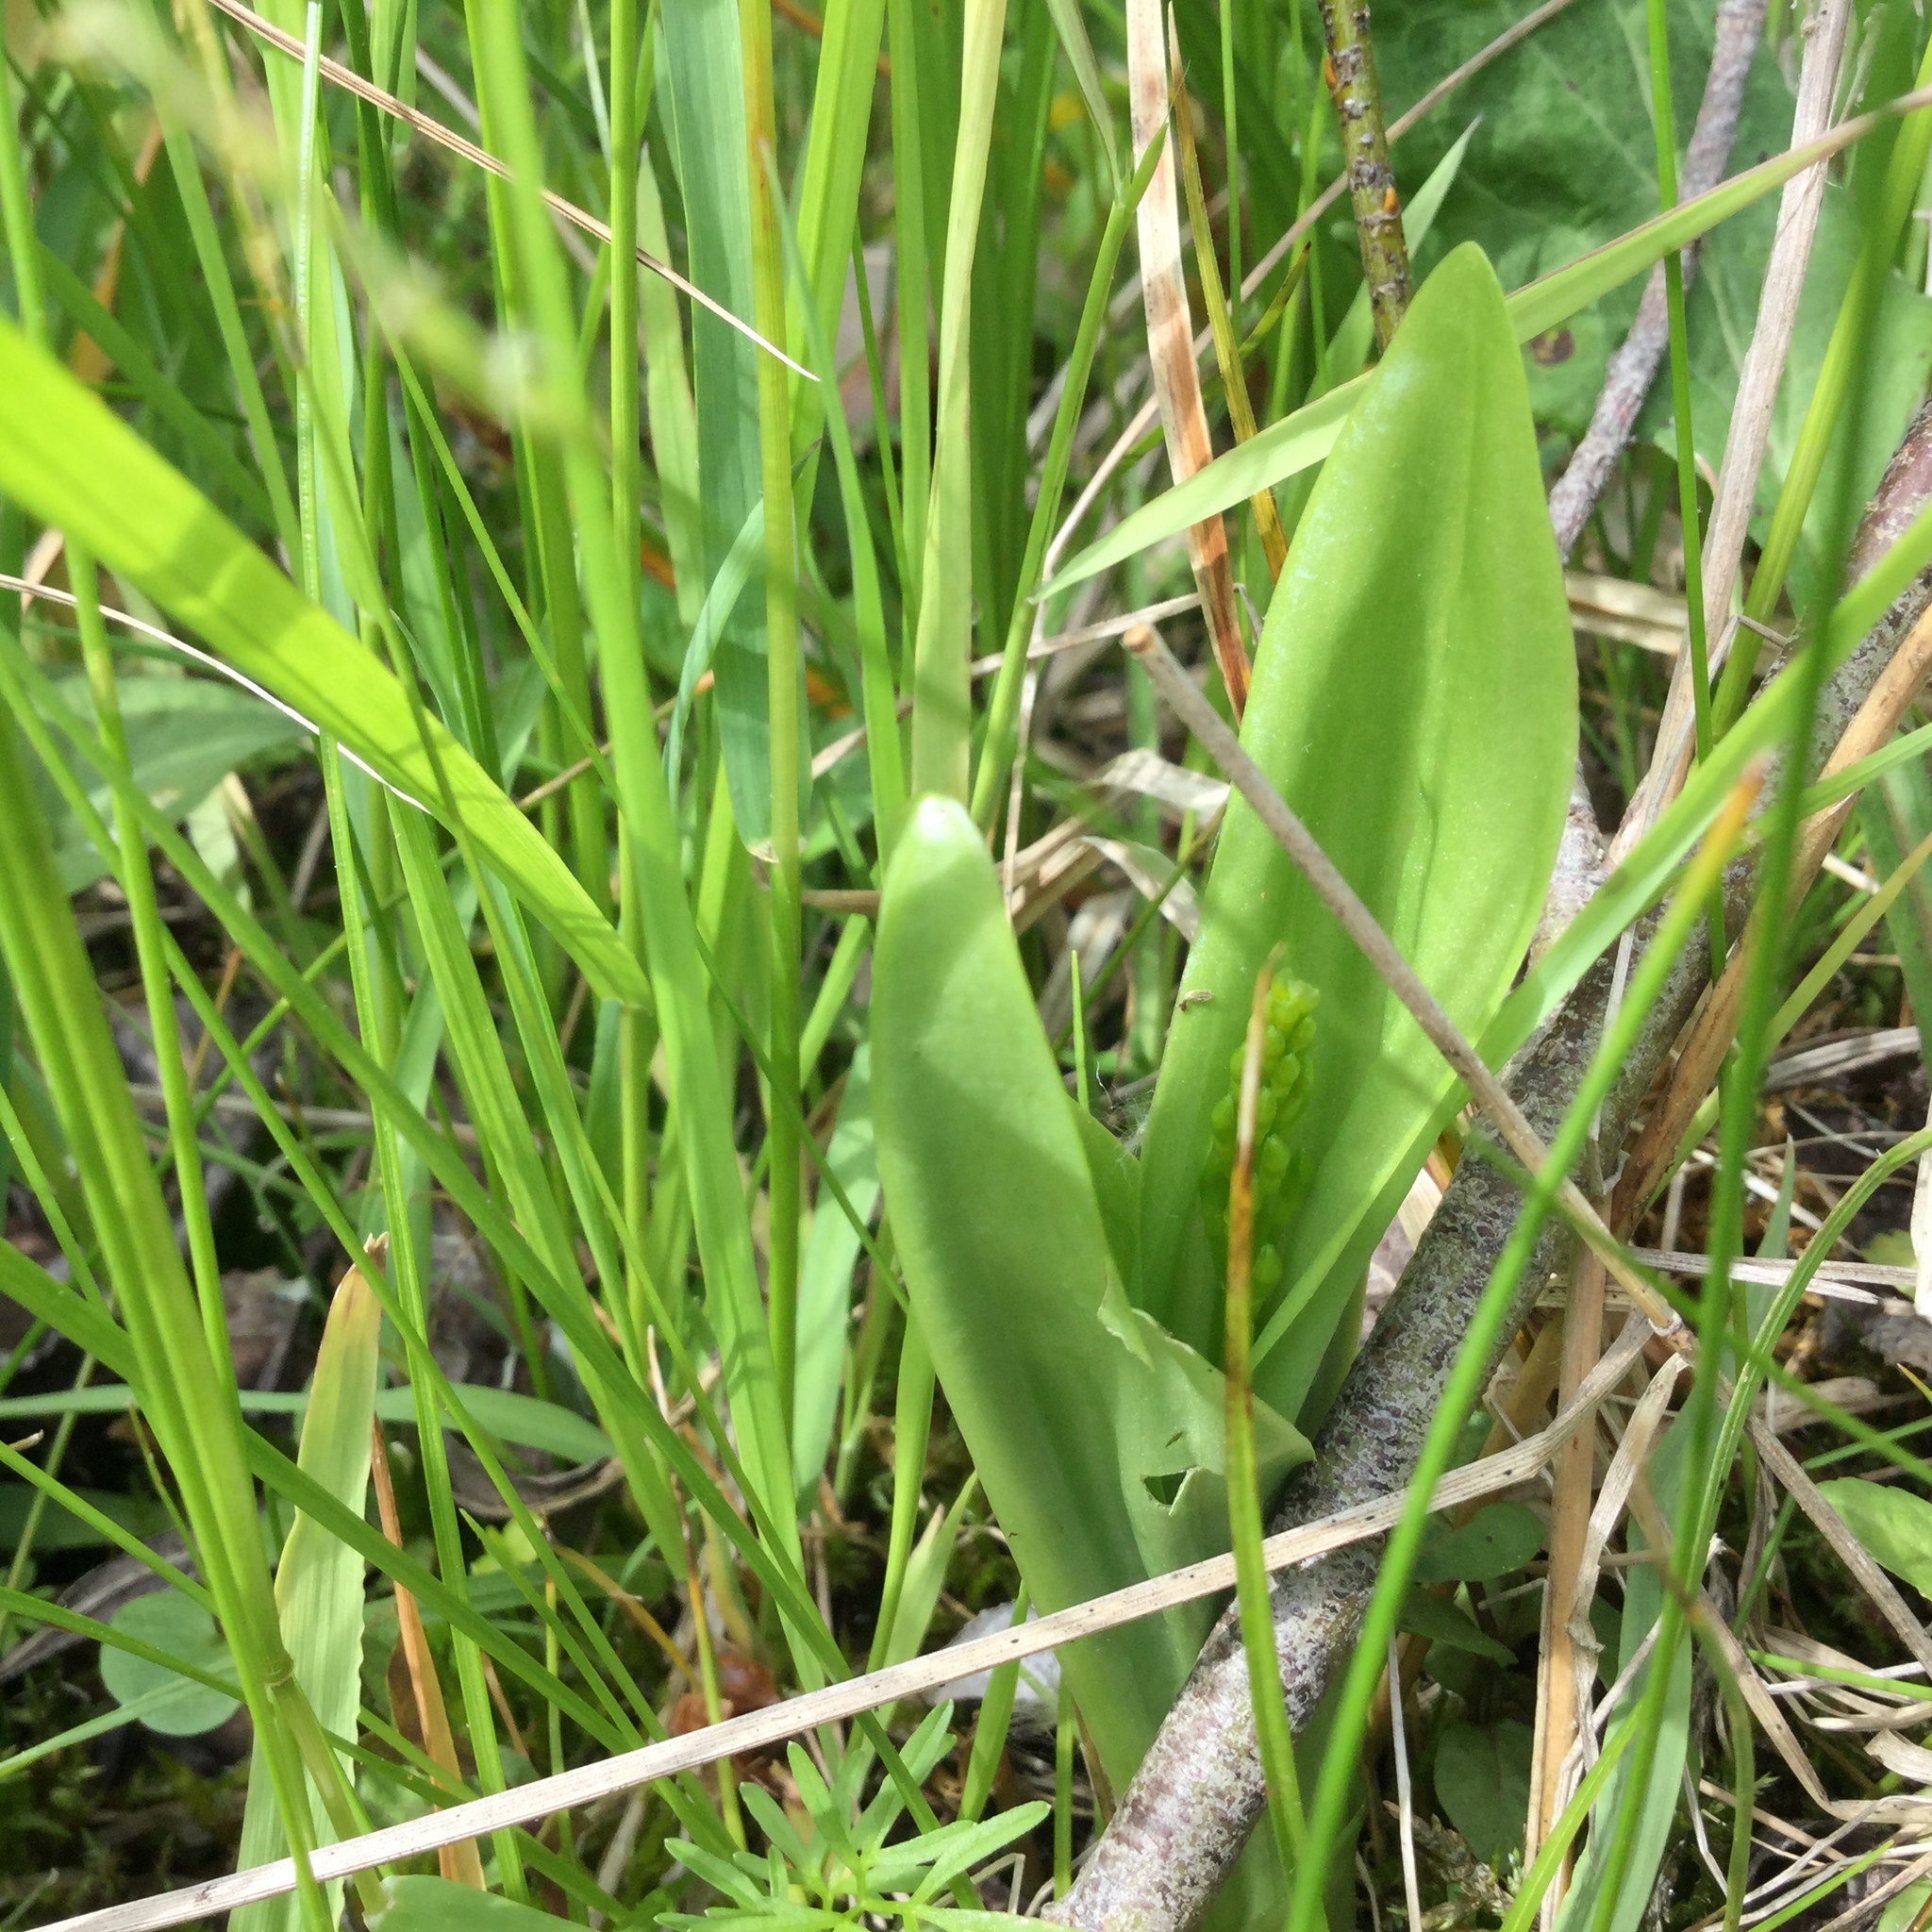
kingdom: Animalia
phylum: Arthropoda
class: Insecta
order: Coleoptera
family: Curculionidae
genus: Liparis
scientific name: Liparis loeselii
